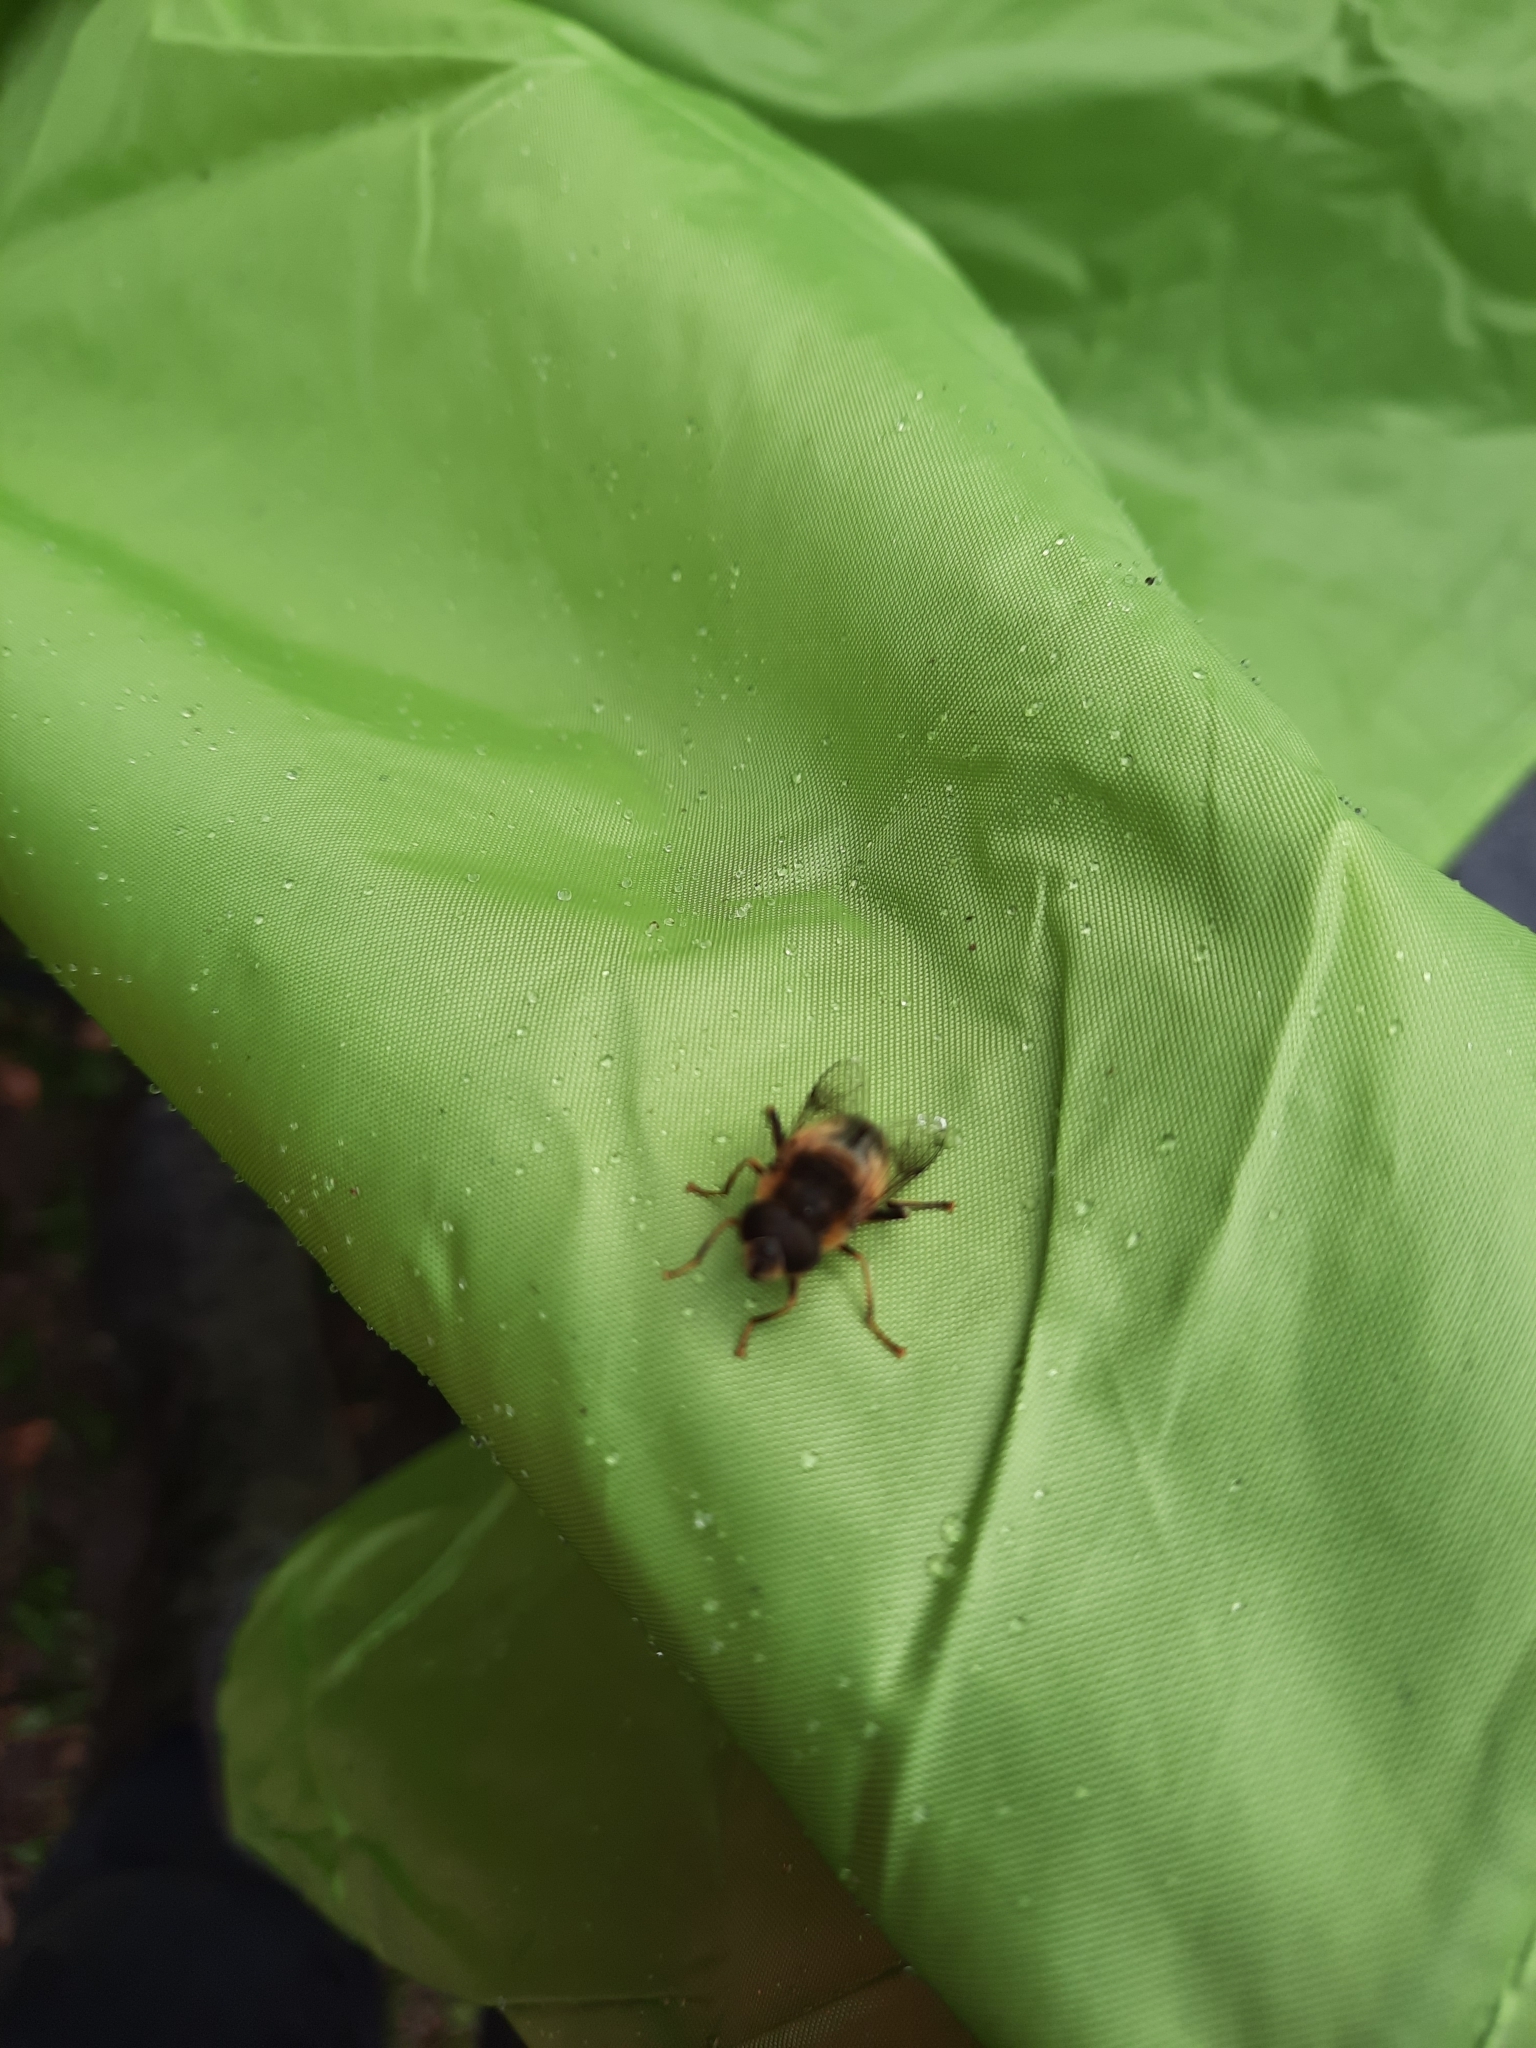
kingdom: Animalia
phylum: Arthropoda
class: Insecta
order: Diptera
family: Syrphidae
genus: Eristalis
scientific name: Eristalis pertinax
